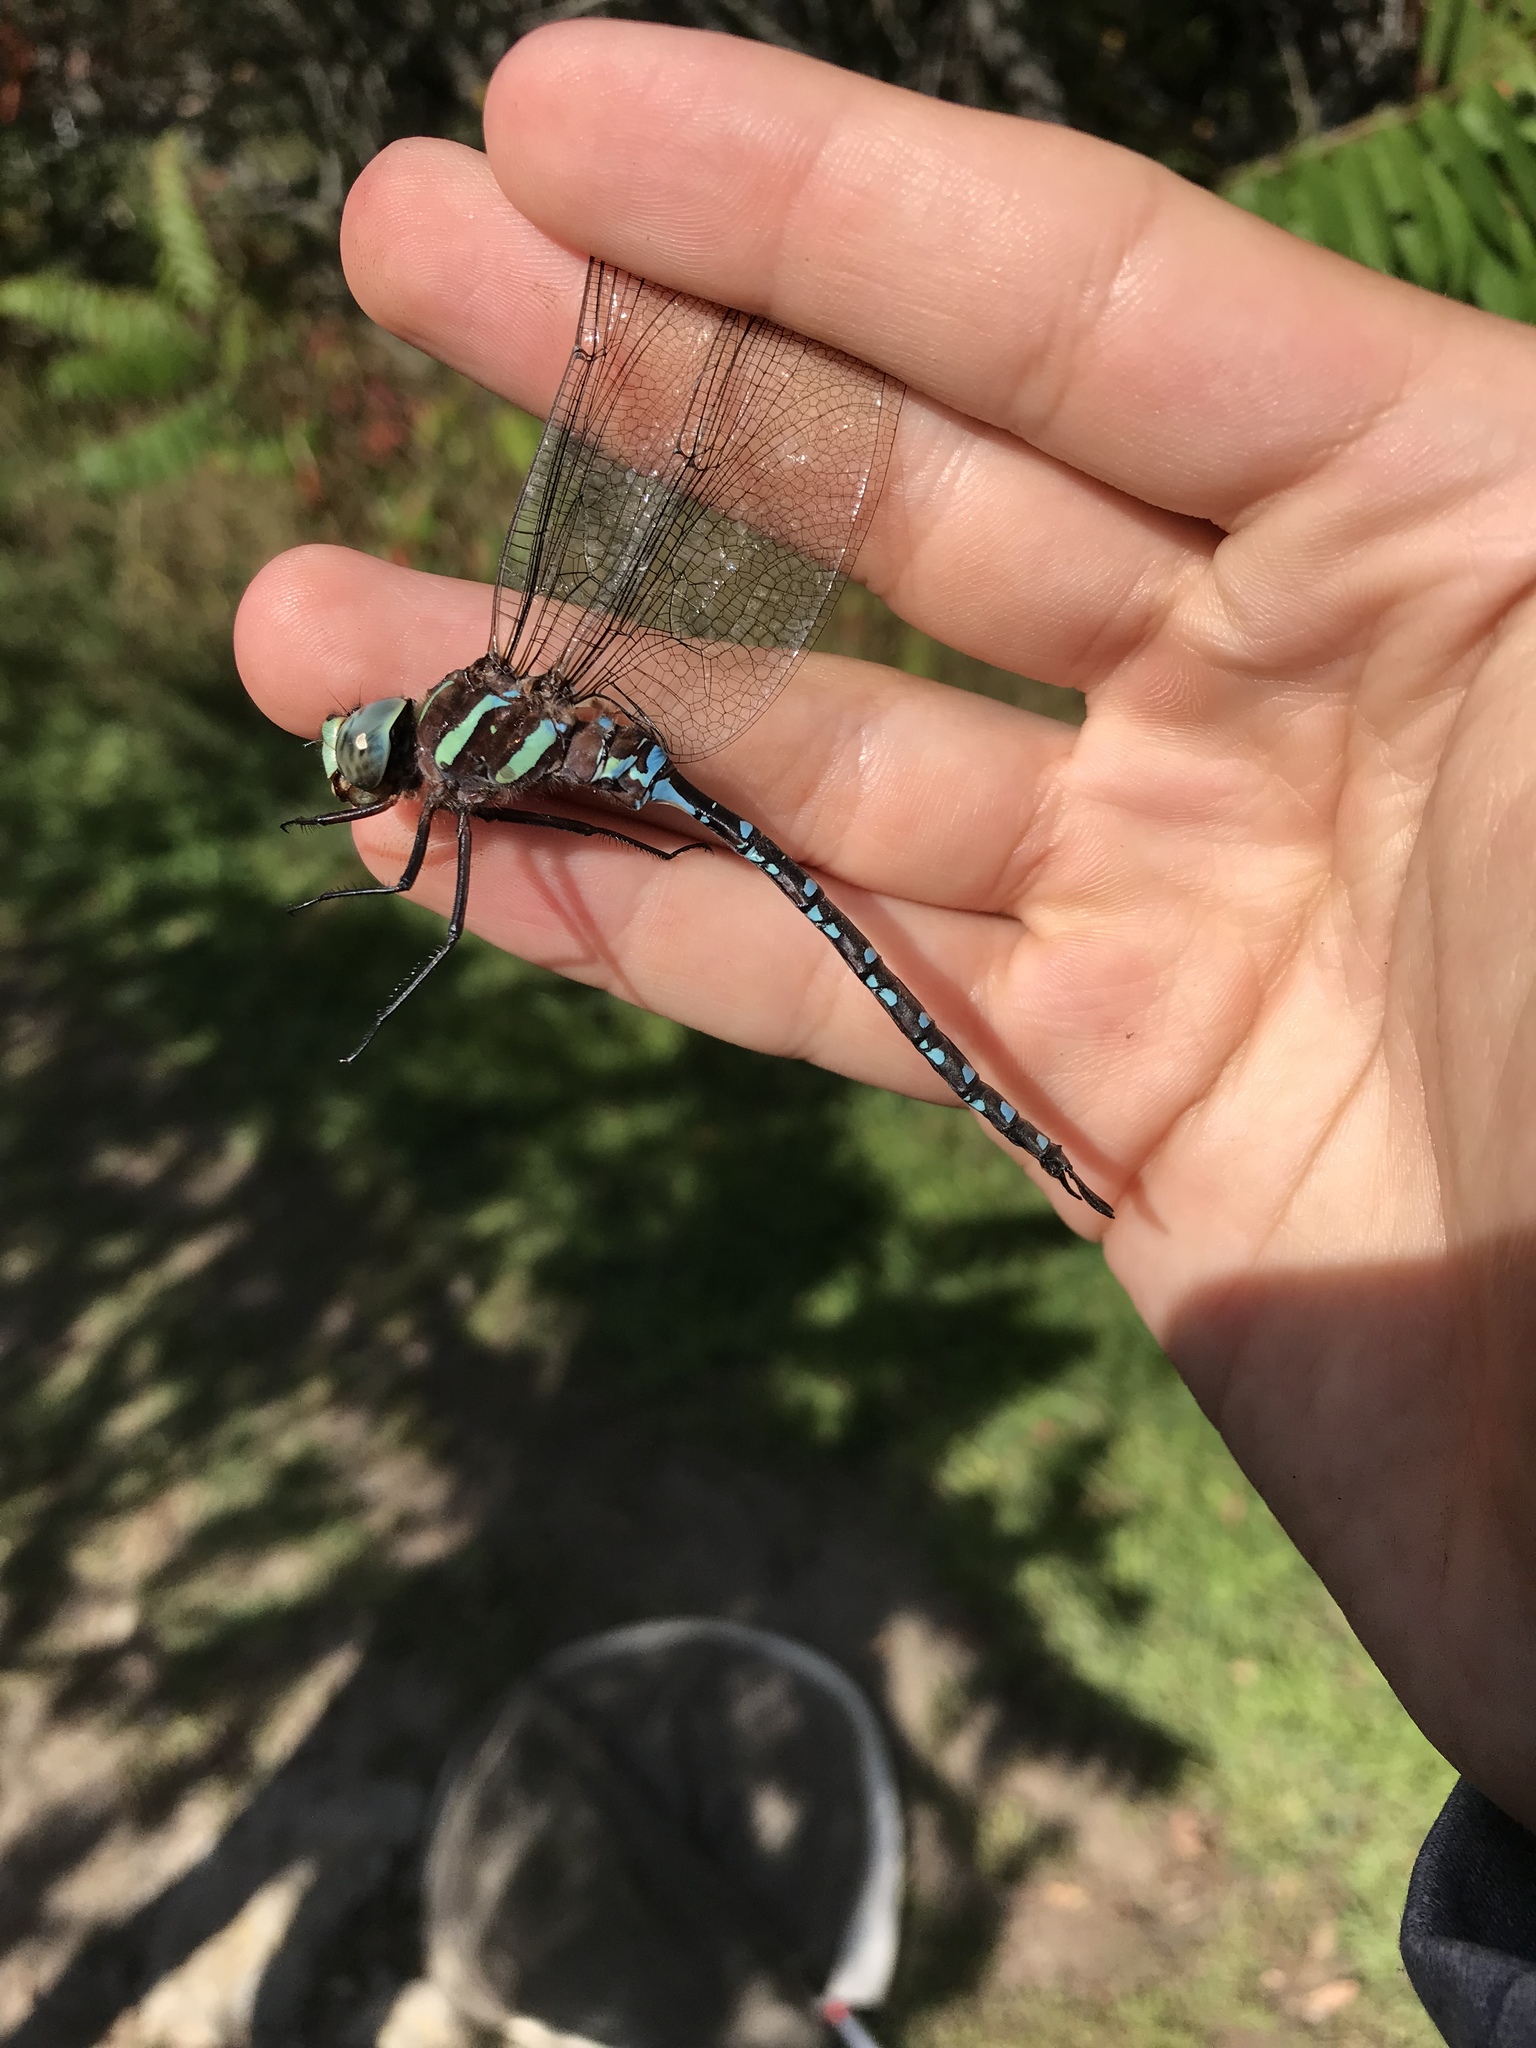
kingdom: Animalia
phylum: Arthropoda
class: Insecta
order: Odonata
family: Aeshnidae
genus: Aeshna
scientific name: Aeshna tuberculifera
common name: Aeschne à tubercules
